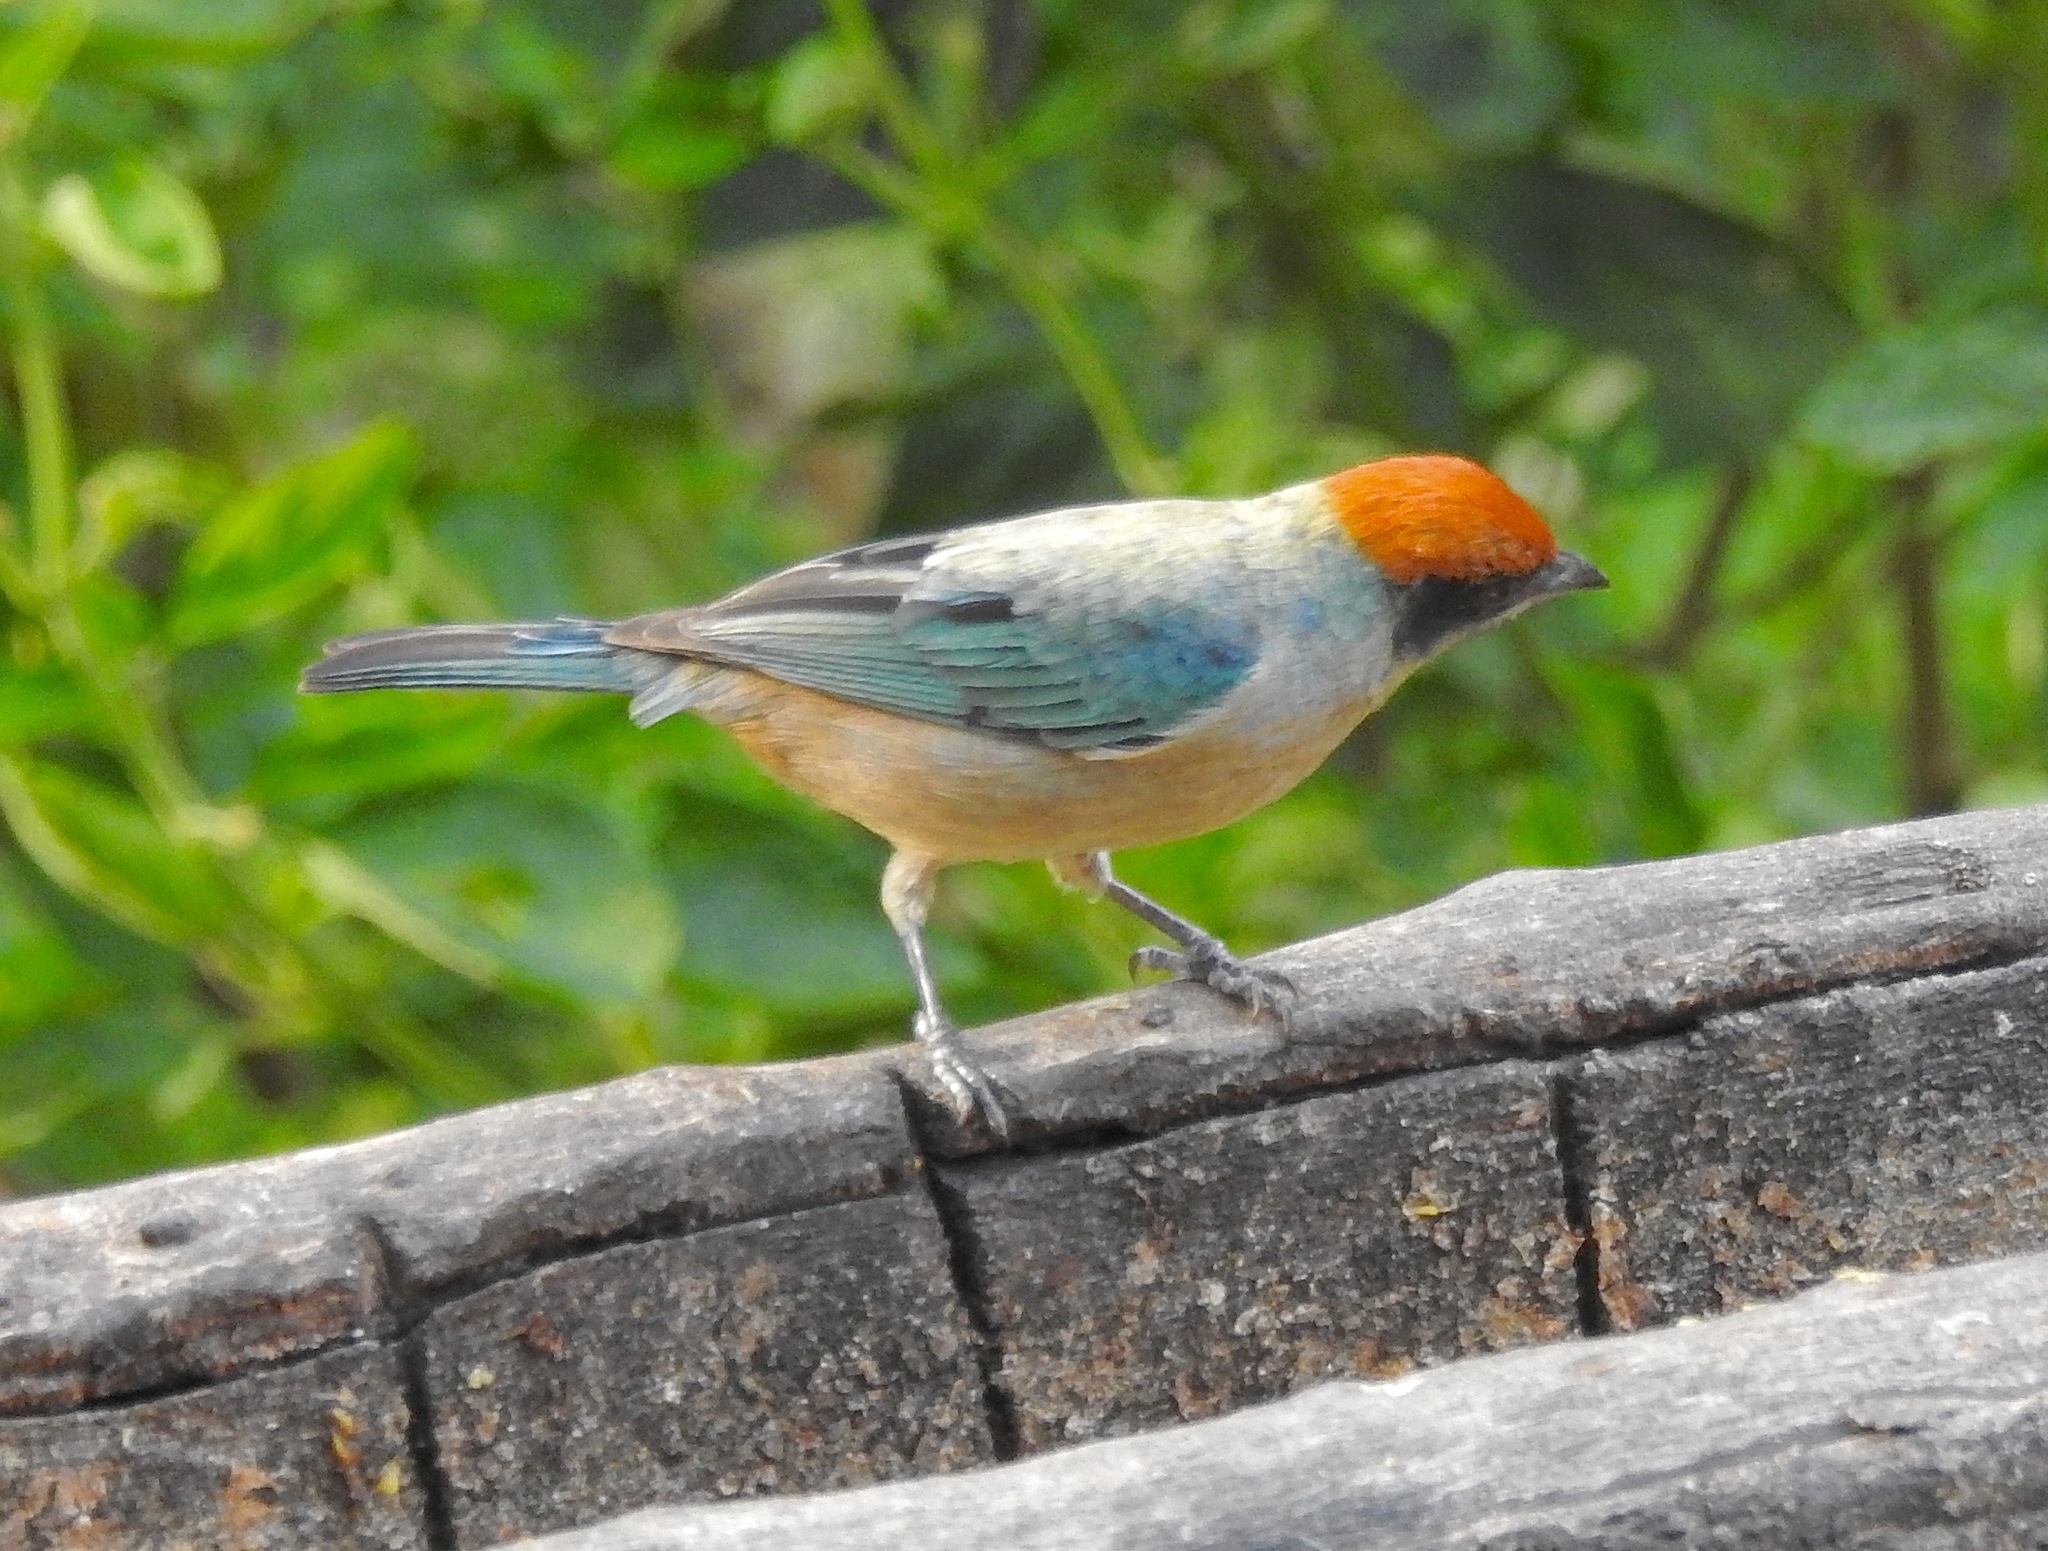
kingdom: Animalia
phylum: Chordata
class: Aves
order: Passeriformes
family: Thraupidae
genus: Stilpnia
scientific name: Stilpnia vitriolina
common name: Scrub tanager
